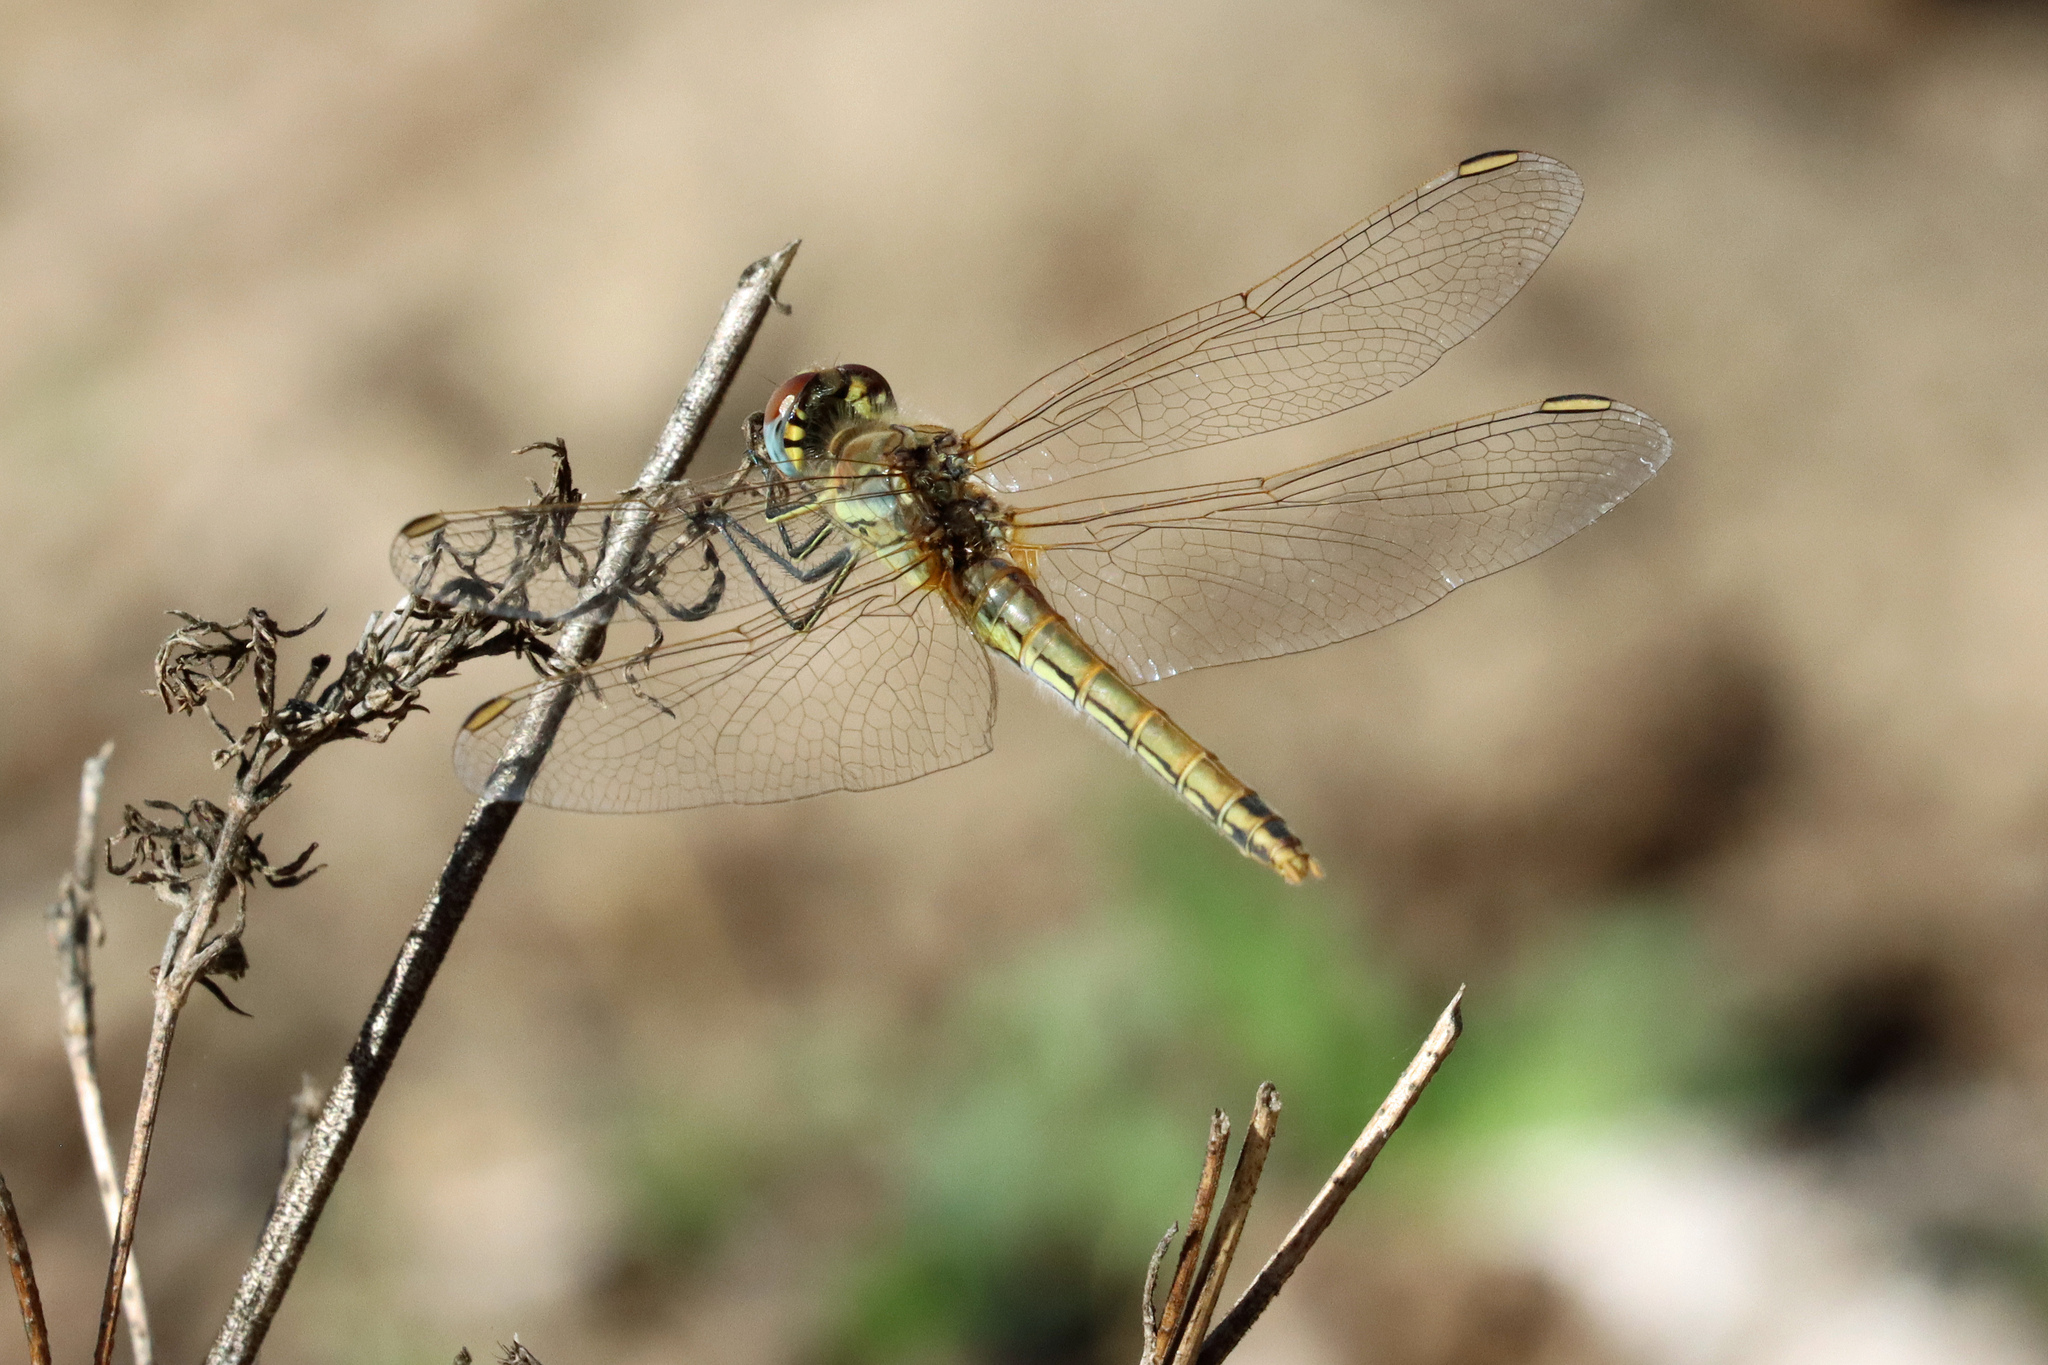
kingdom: Animalia
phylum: Arthropoda
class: Insecta
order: Odonata
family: Libellulidae
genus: Sympetrum
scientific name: Sympetrum fonscolombii
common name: Red-veined darter
